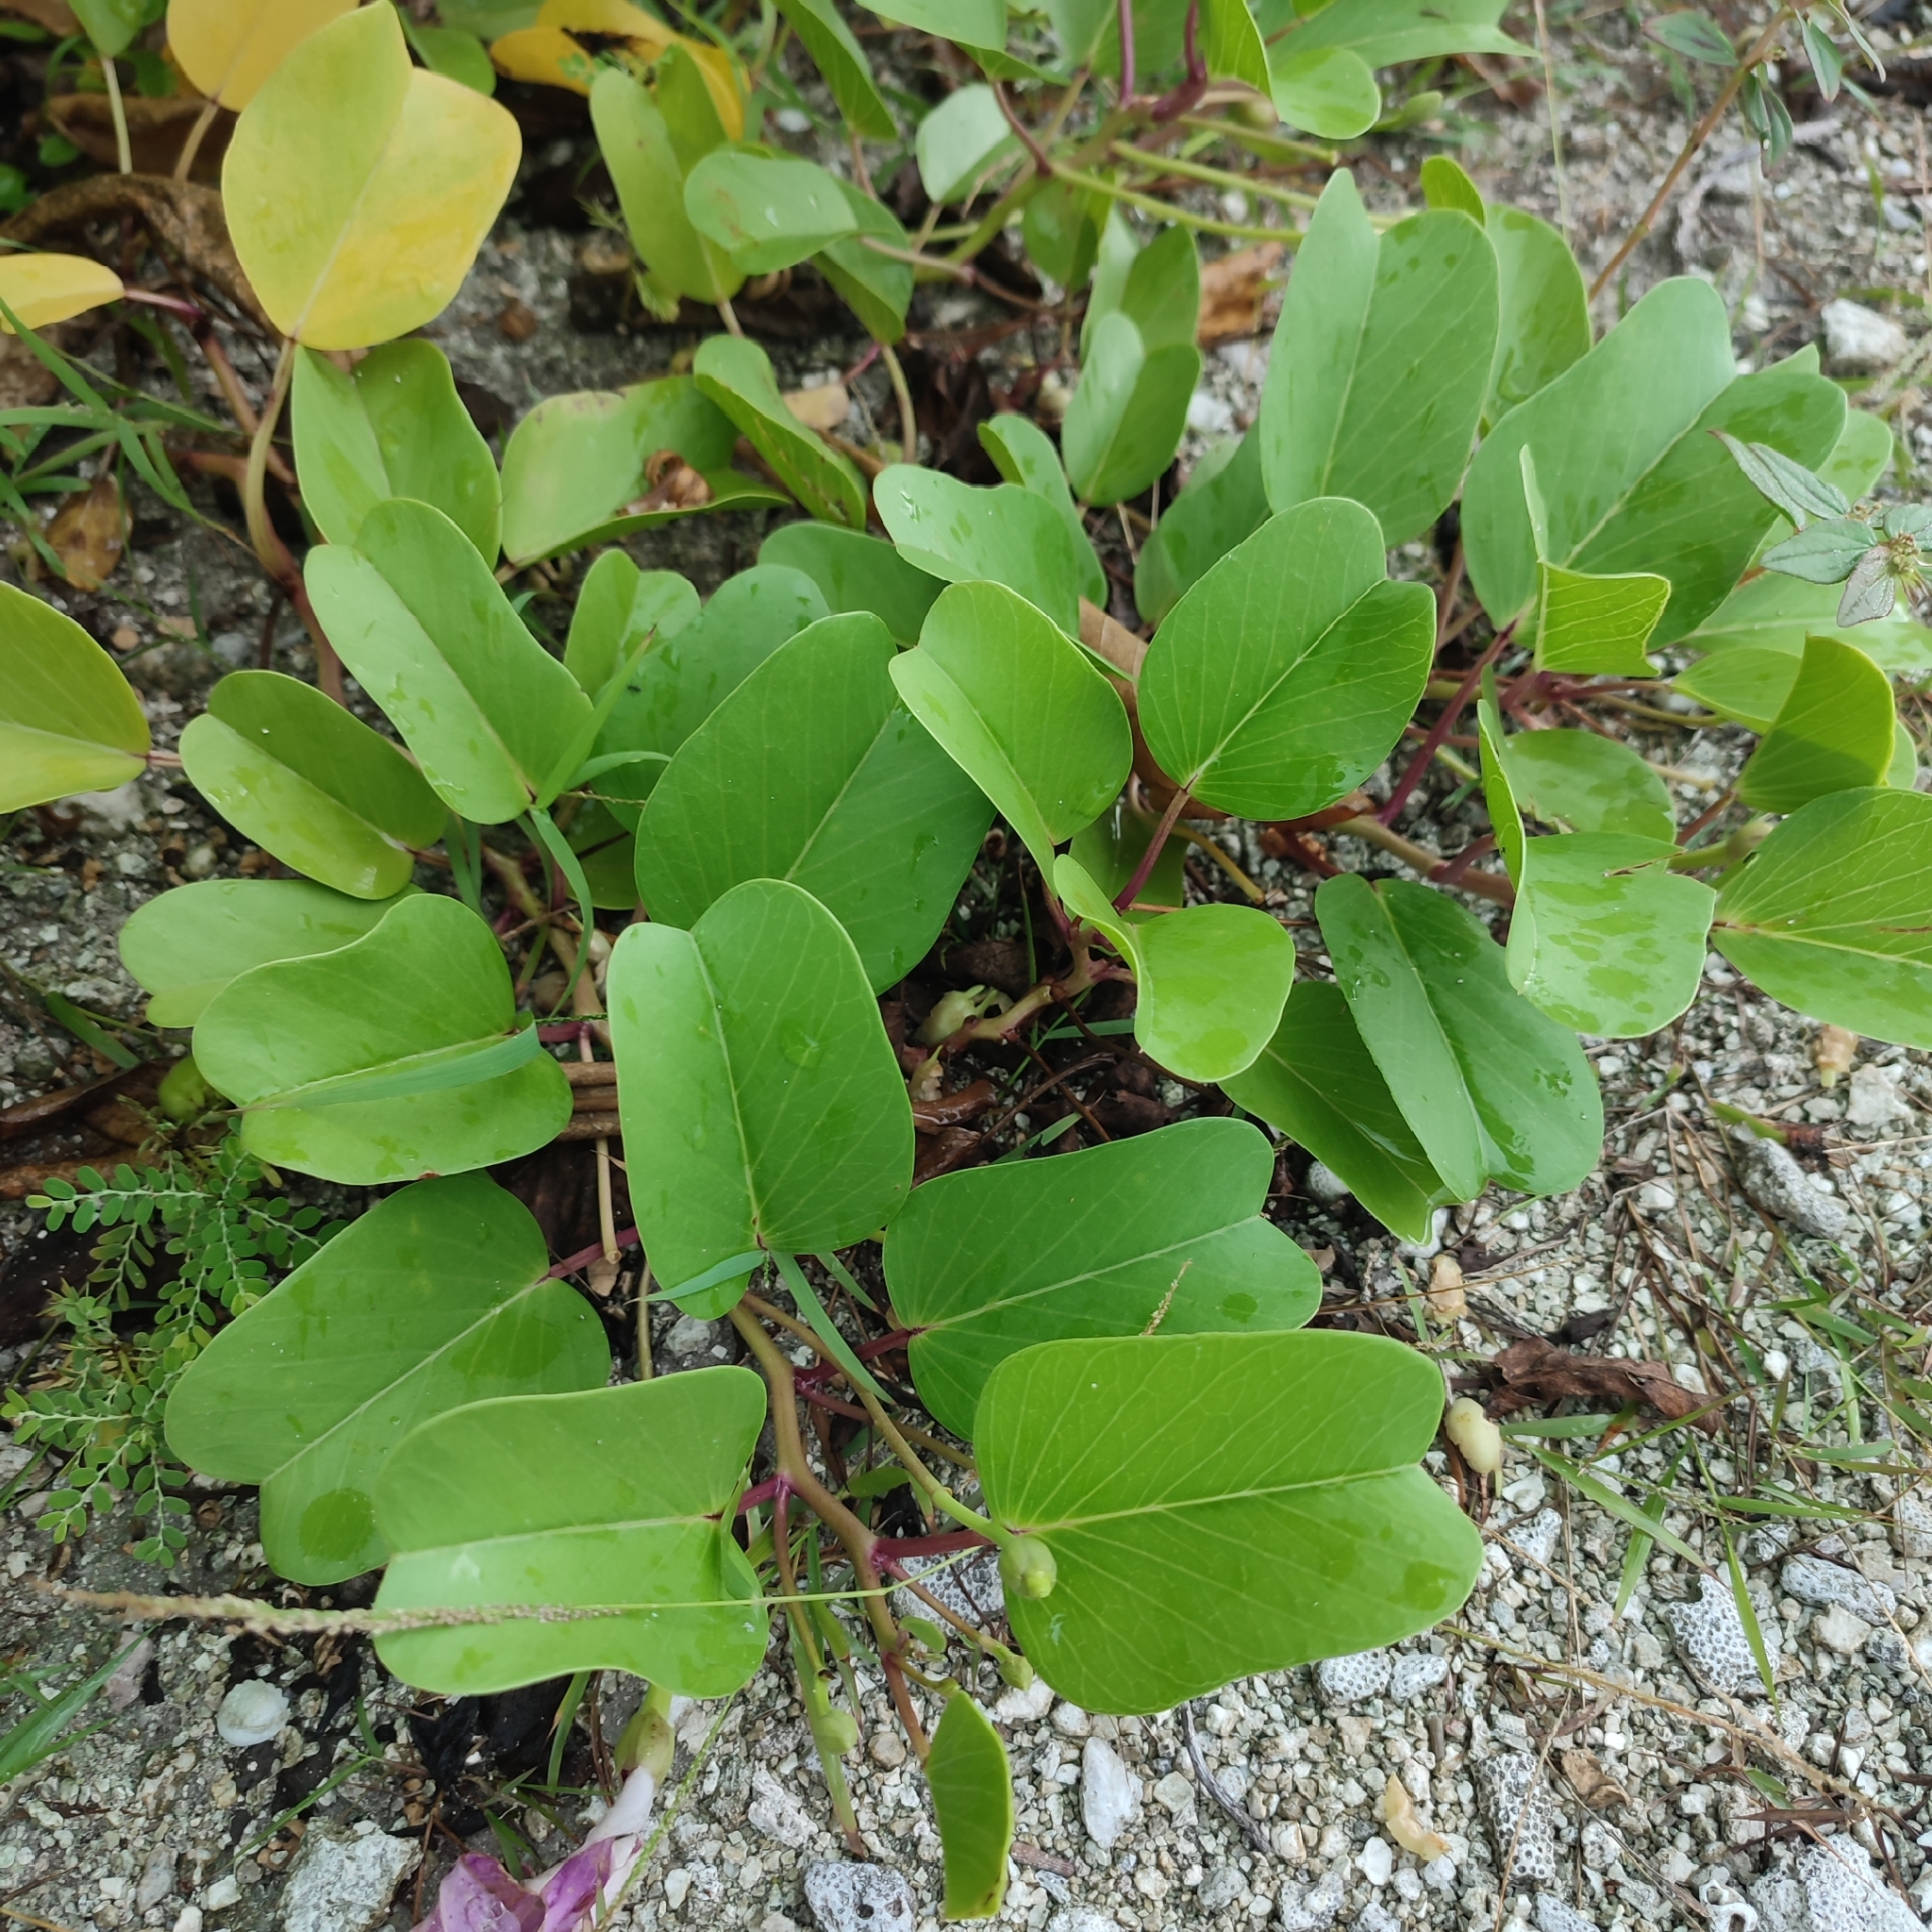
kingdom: Plantae
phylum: Tracheophyta
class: Magnoliopsida
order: Solanales
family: Convolvulaceae
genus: Ipomoea
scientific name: Ipomoea pes-caprae
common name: Beach morning glory
